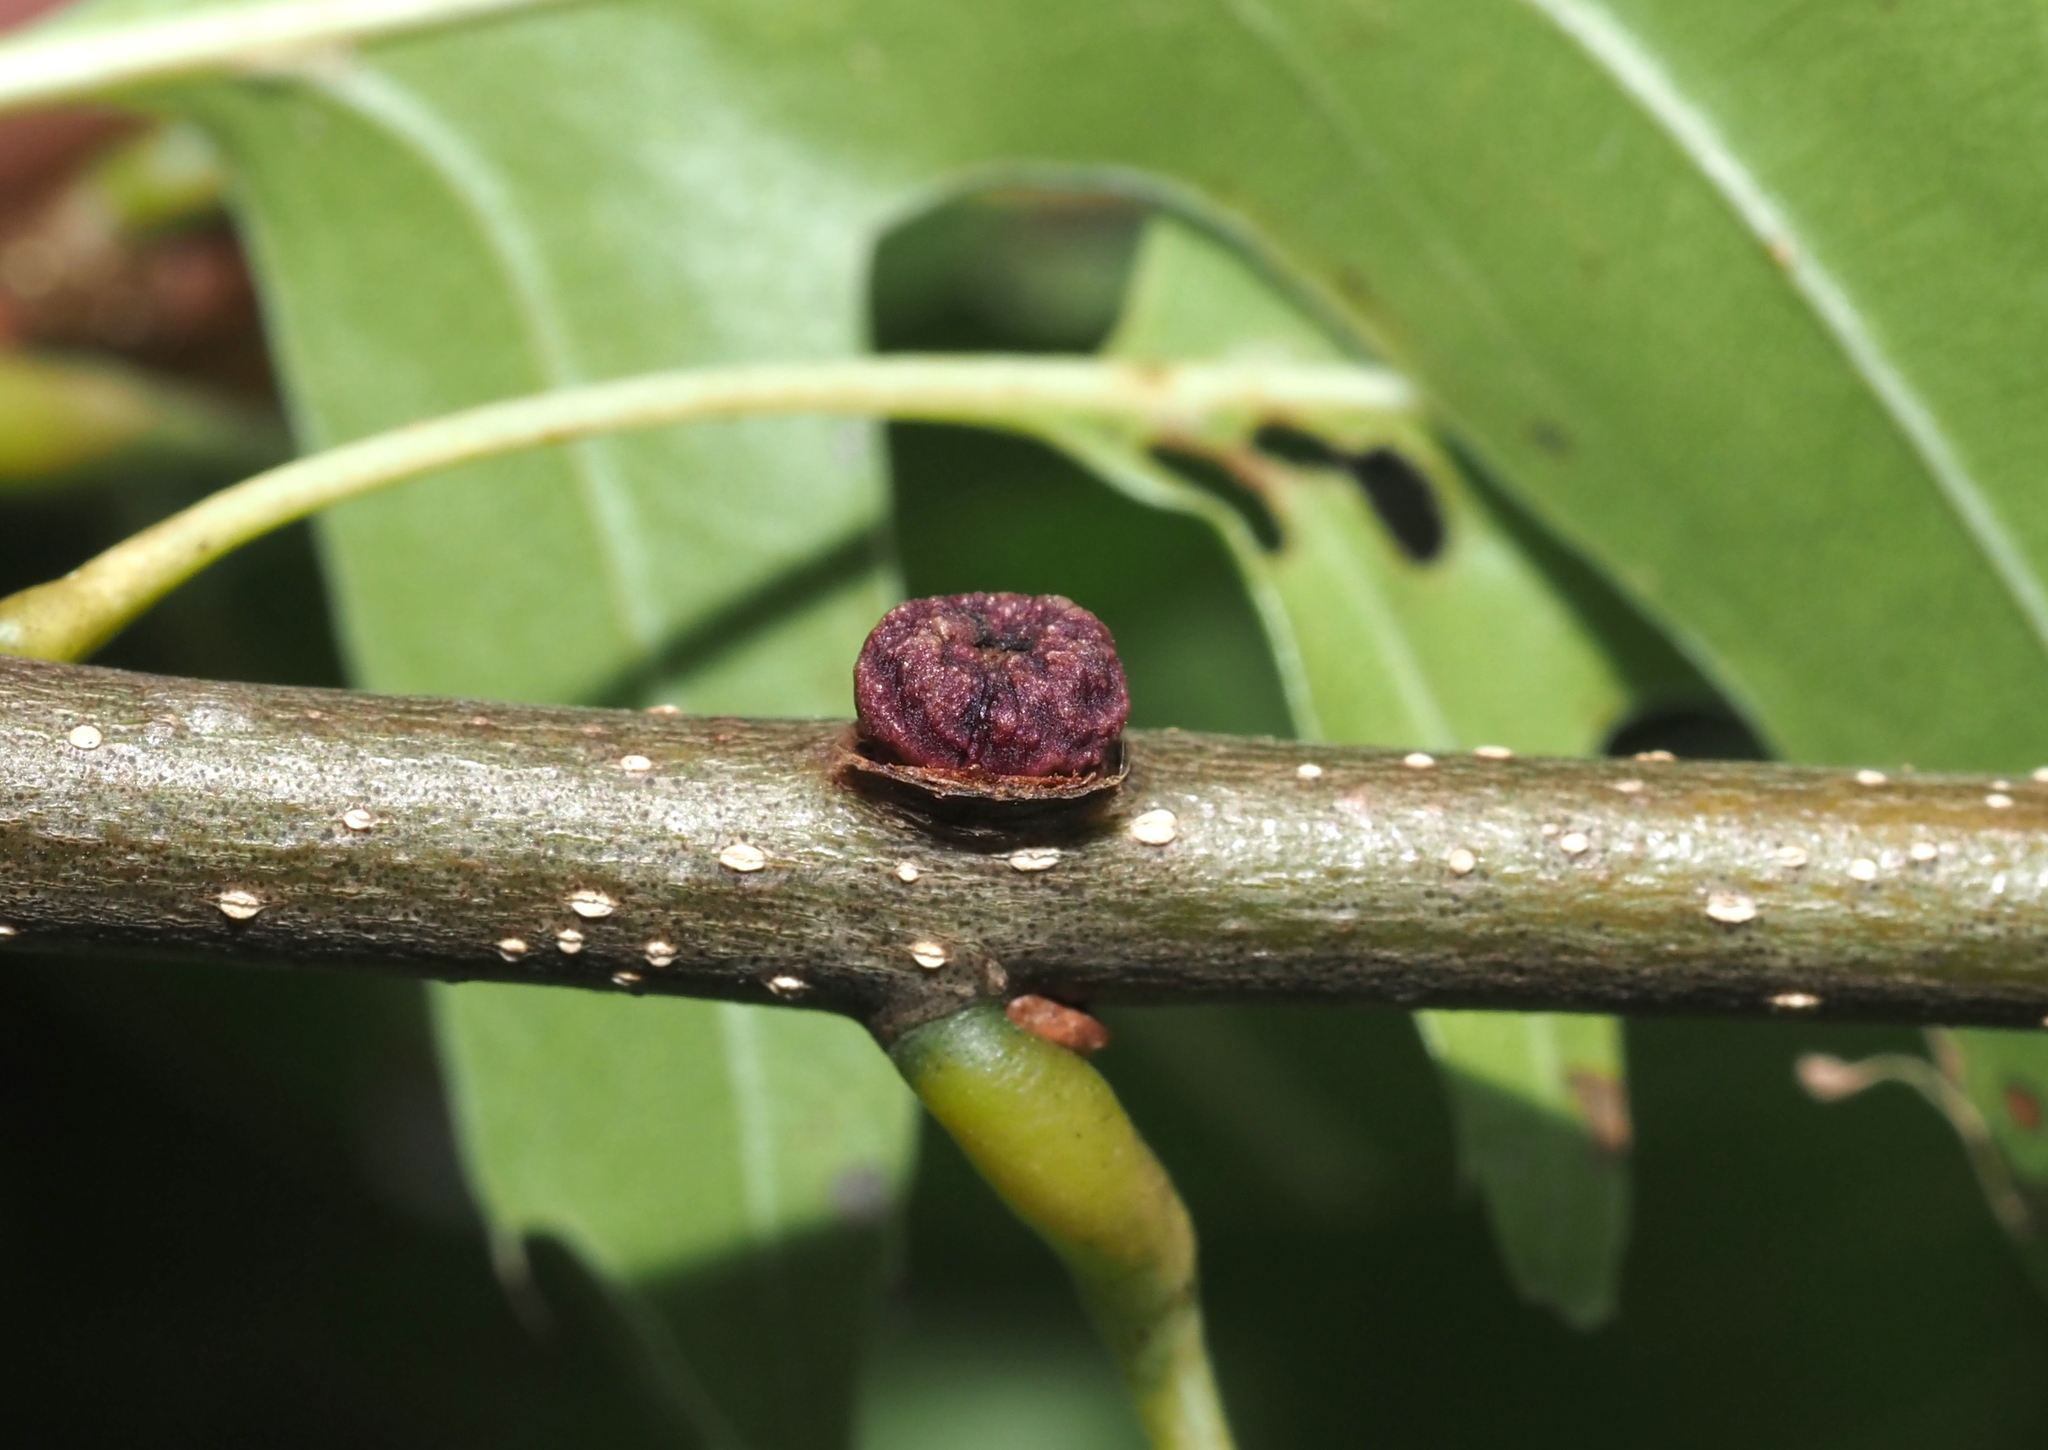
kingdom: Animalia
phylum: Arthropoda
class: Insecta
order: Hymenoptera
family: Cynipidae
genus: Kokkocynips
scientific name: Kokkocynips difficilis
